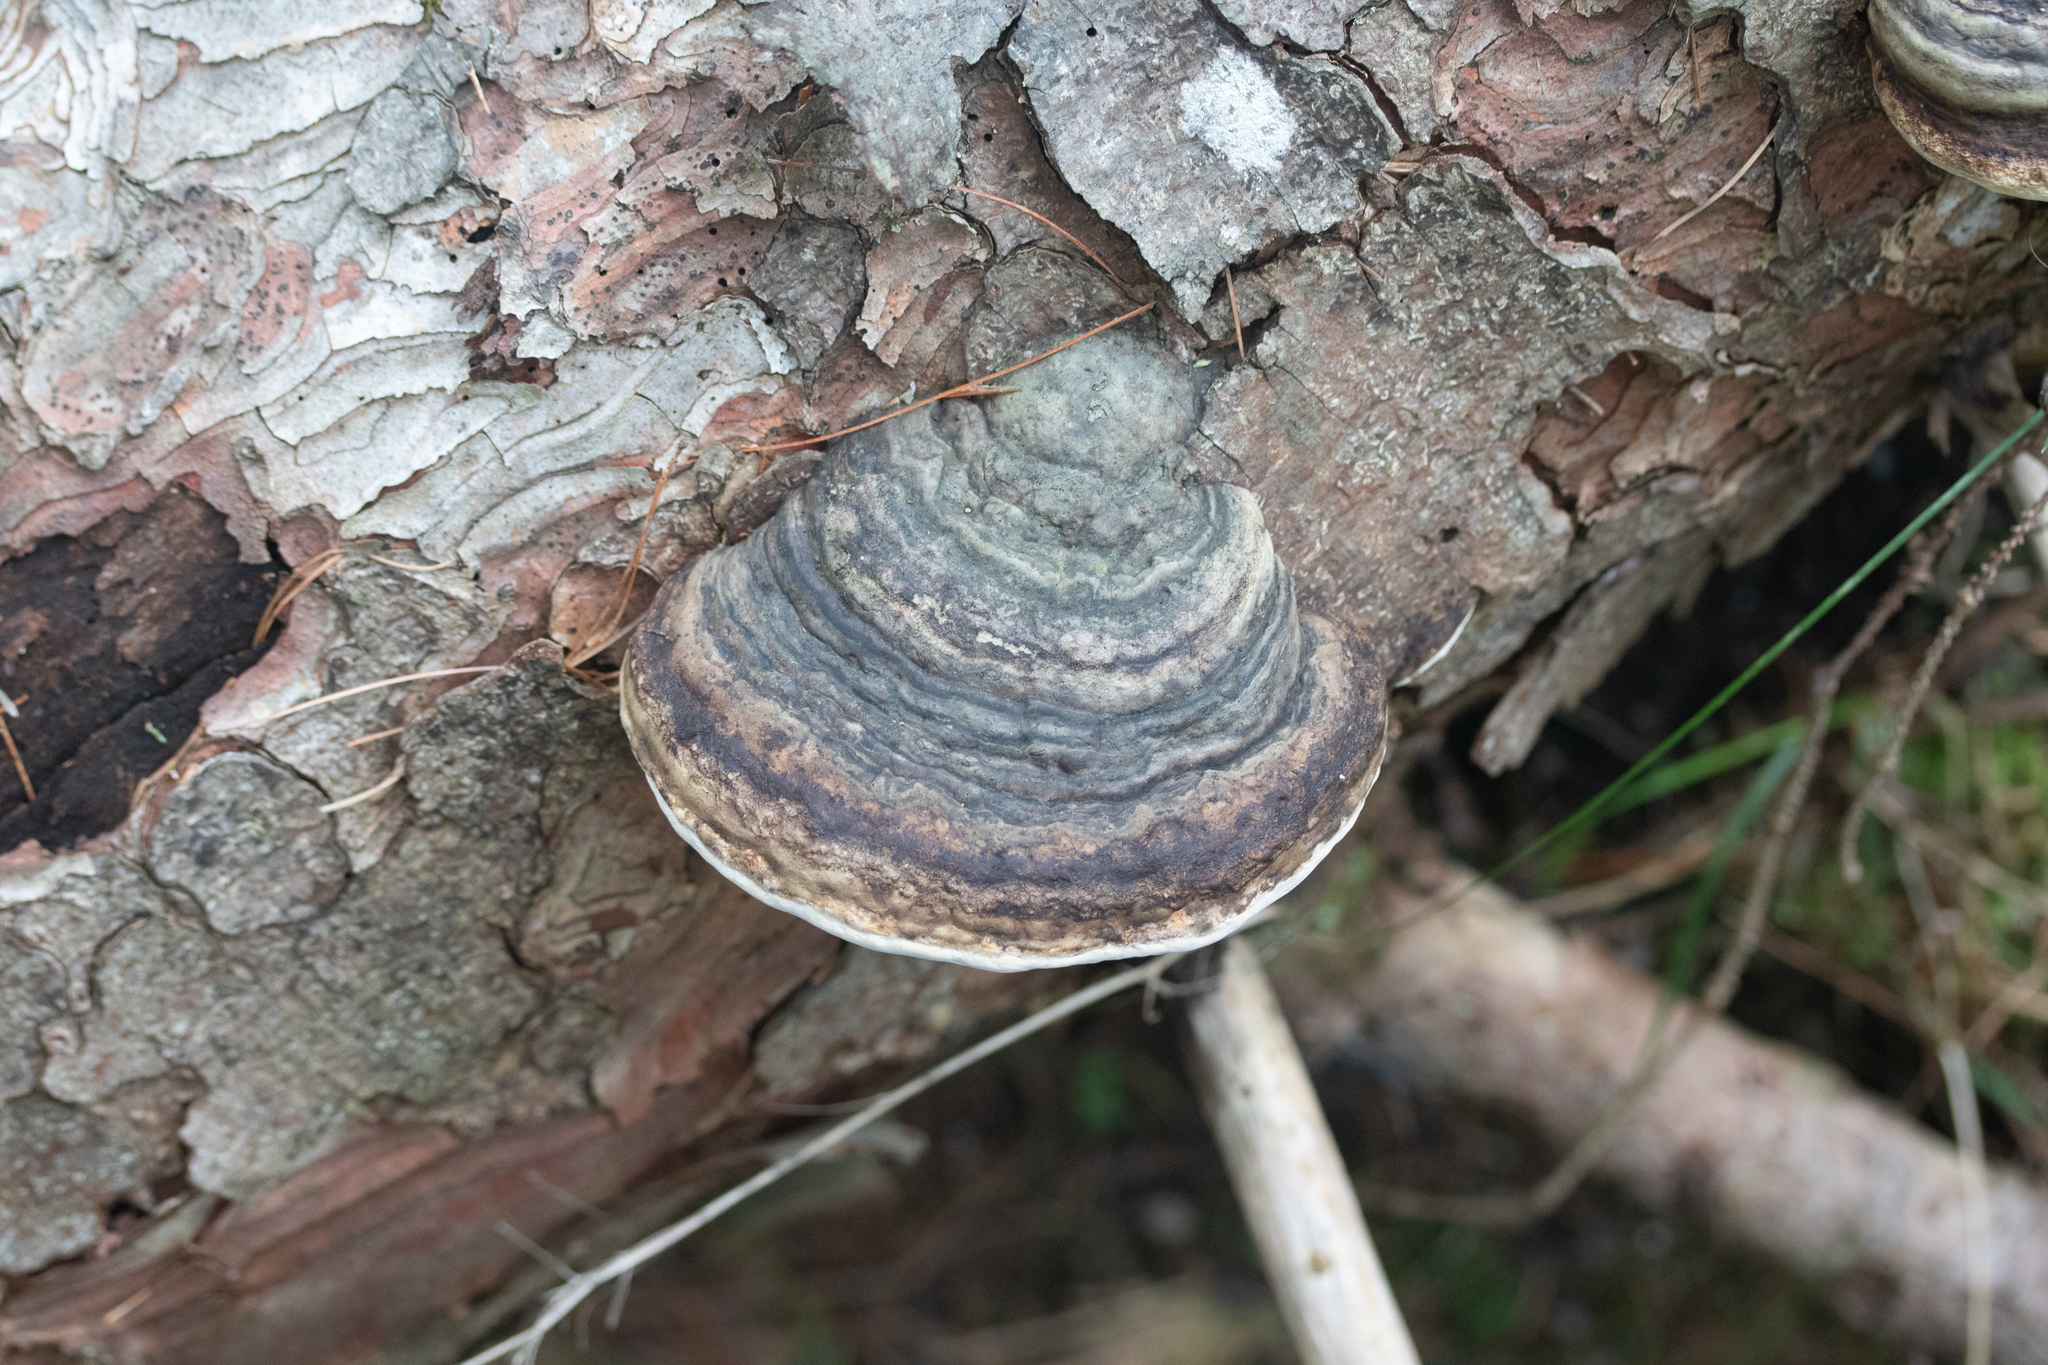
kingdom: Fungi
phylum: Basidiomycota
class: Agaricomycetes
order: Polyporales
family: Polyporaceae
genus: Ganoderma
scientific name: Ganoderma applanatum
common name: Artist's bracket
